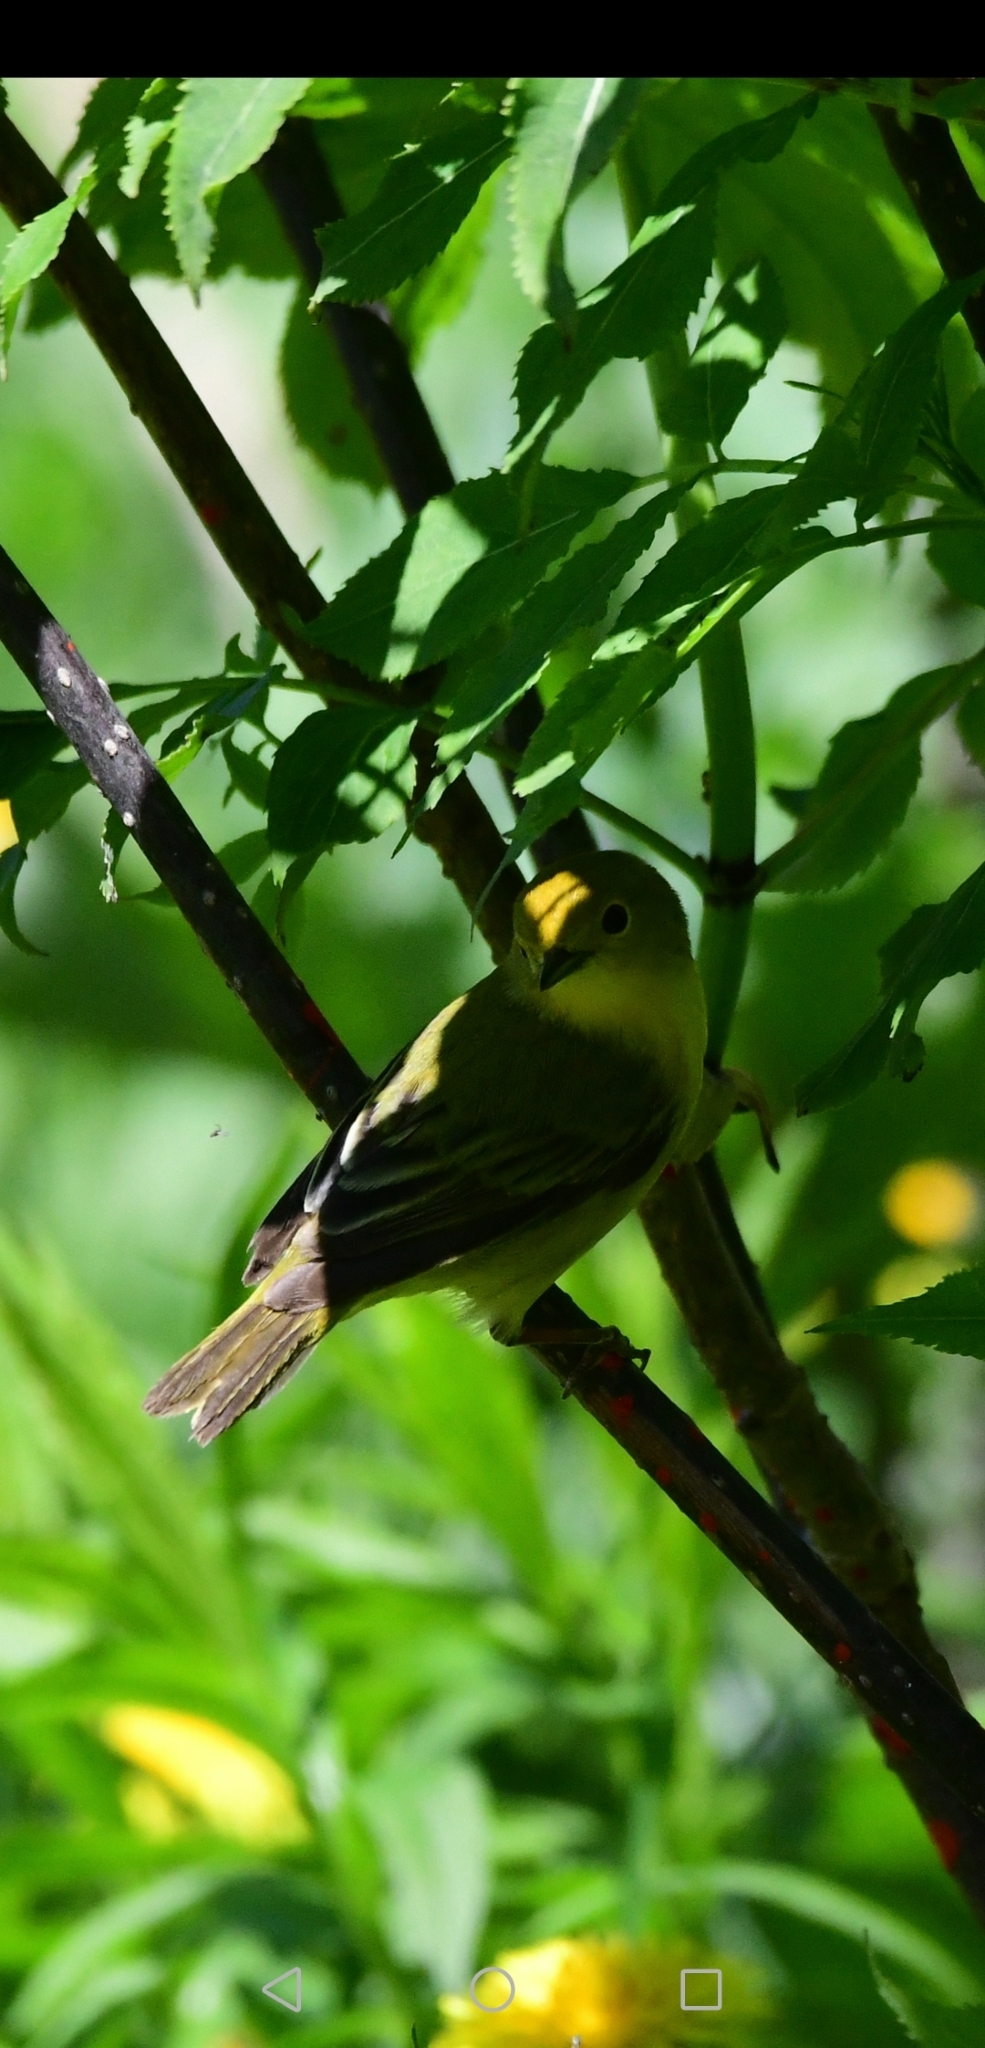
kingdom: Animalia
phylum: Chordata
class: Aves
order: Passeriformes
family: Parulidae
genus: Setophaga
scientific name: Setophaga petechia
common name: Yellow warbler
